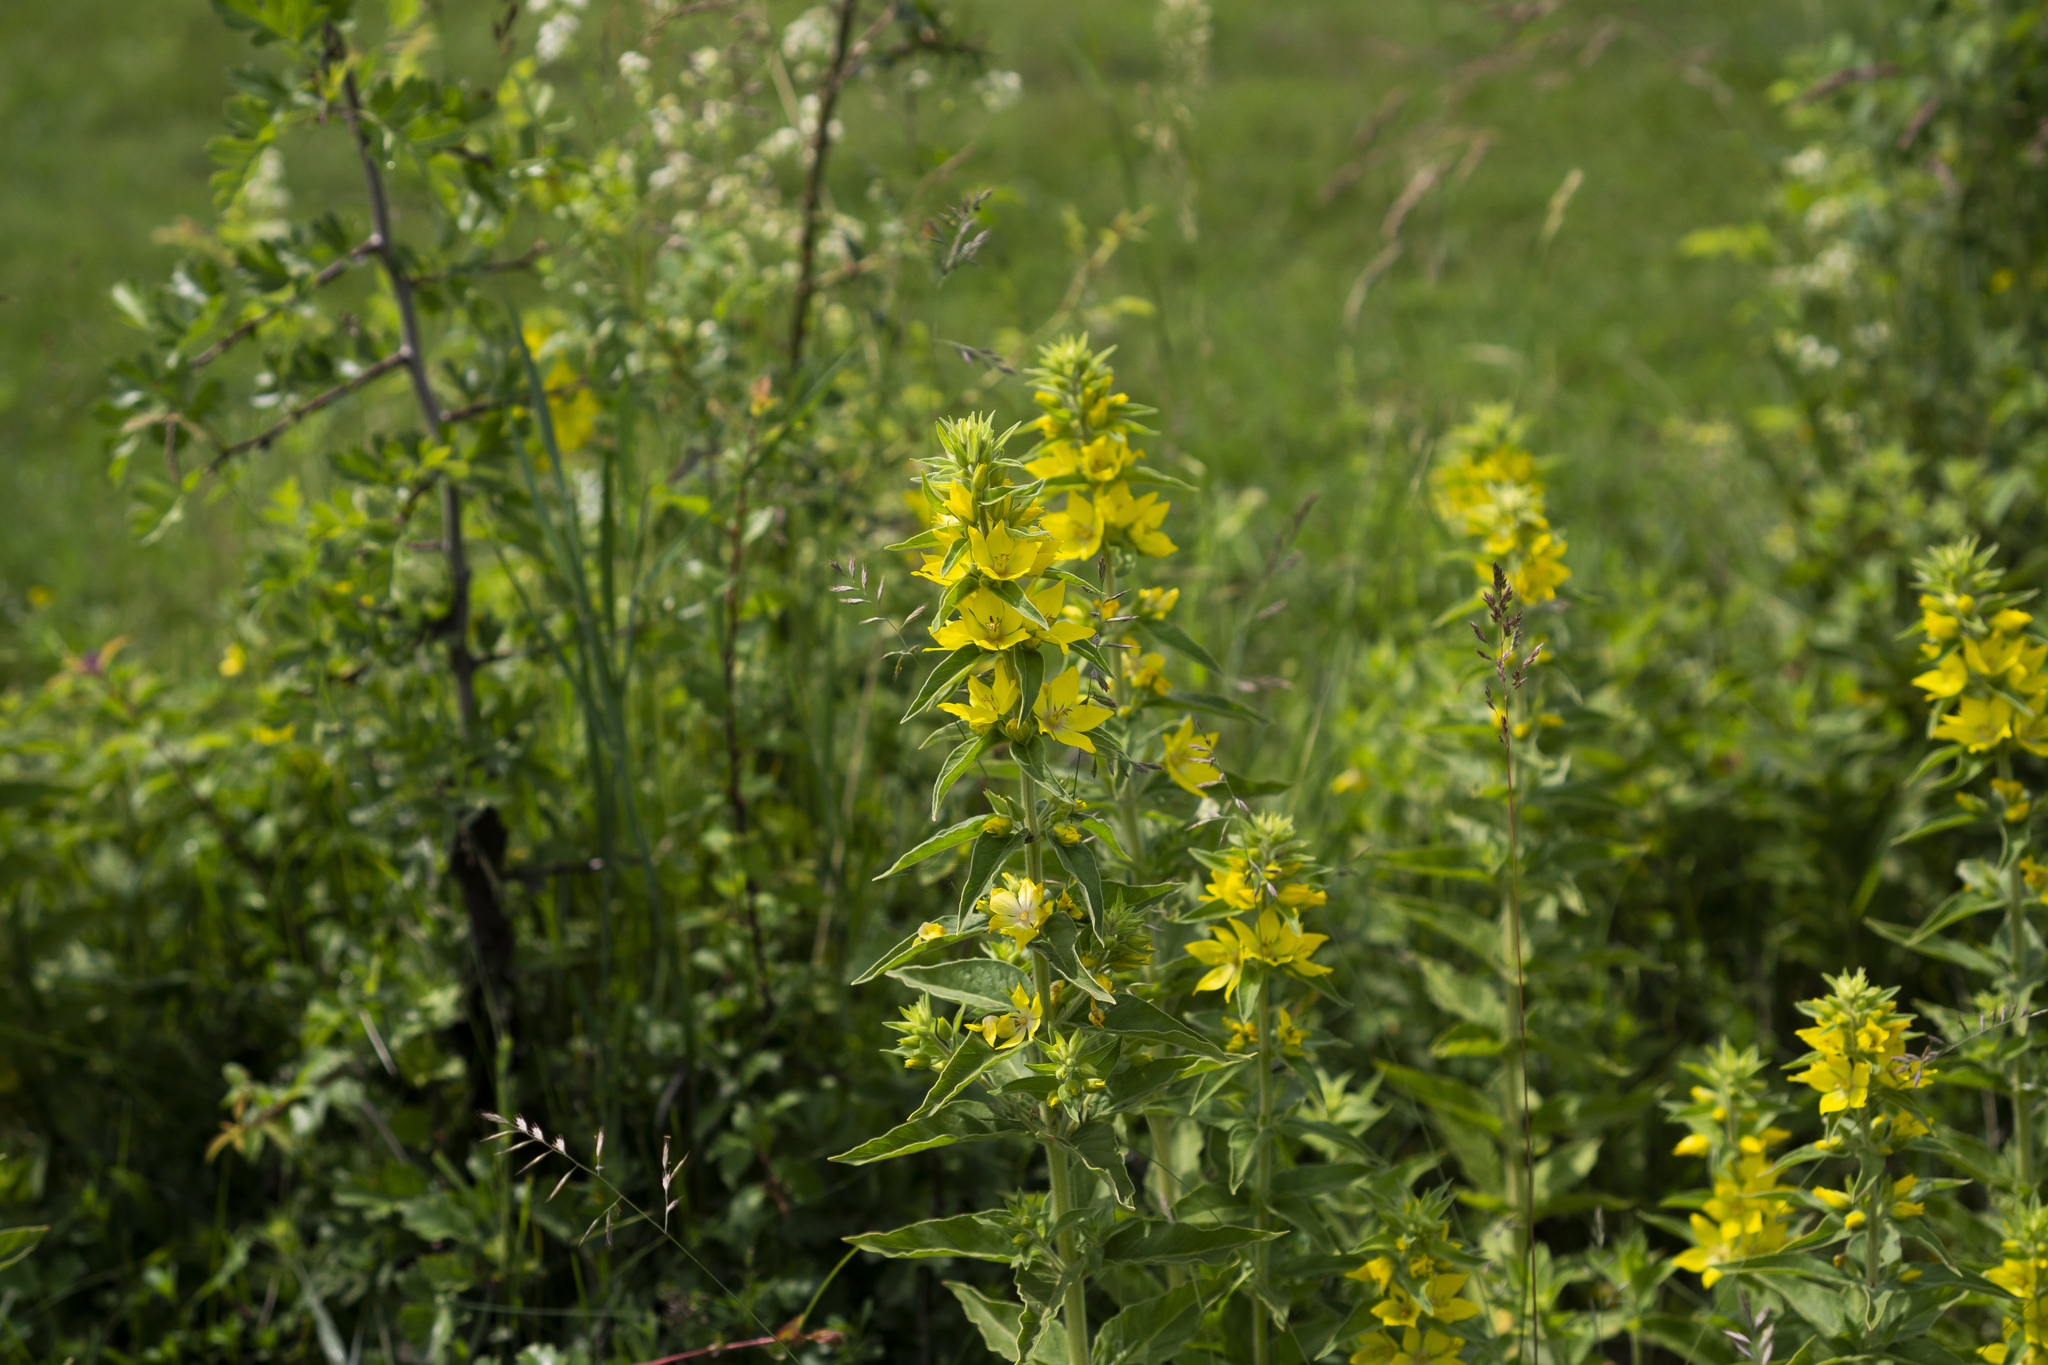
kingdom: Plantae
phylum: Tracheophyta
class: Magnoliopsida
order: Ericales
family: Primulaceae
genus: Lysimachia
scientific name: Lysimachia punctata
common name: Dotted loosestrife
